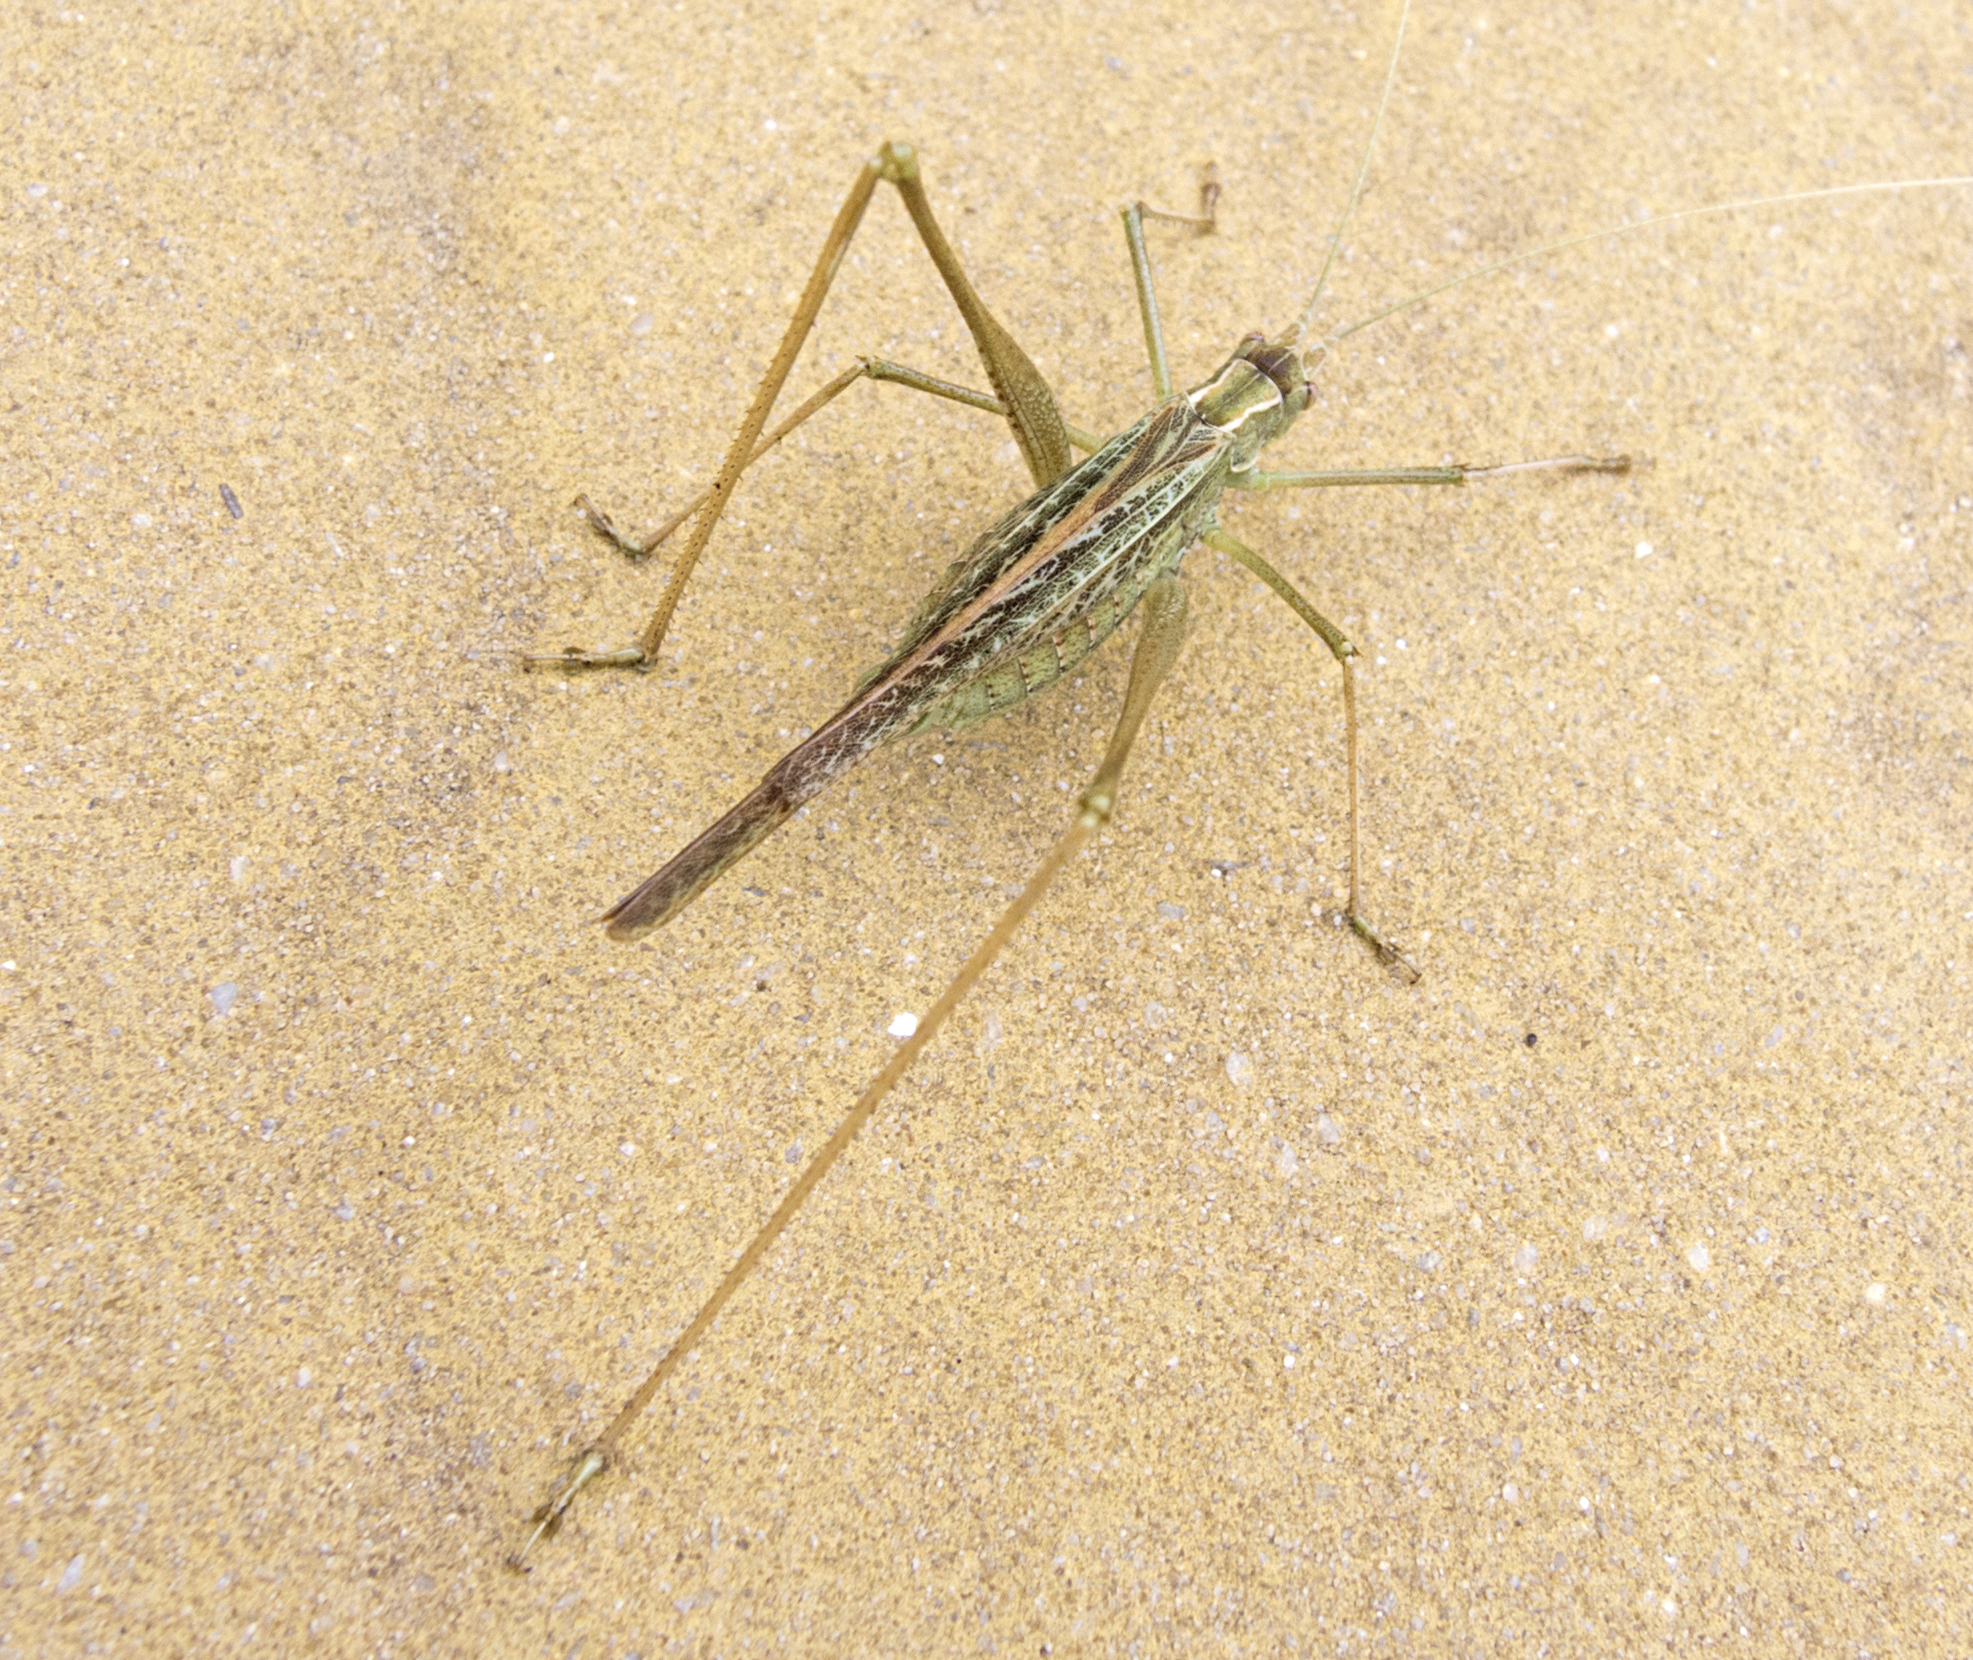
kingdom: Animalia
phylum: Arthropoda
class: Insecta
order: Orthoptera
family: Tettigoniidae
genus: Tylopsis
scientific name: Tylopsis lilifolia
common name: Lily bush-cricket
